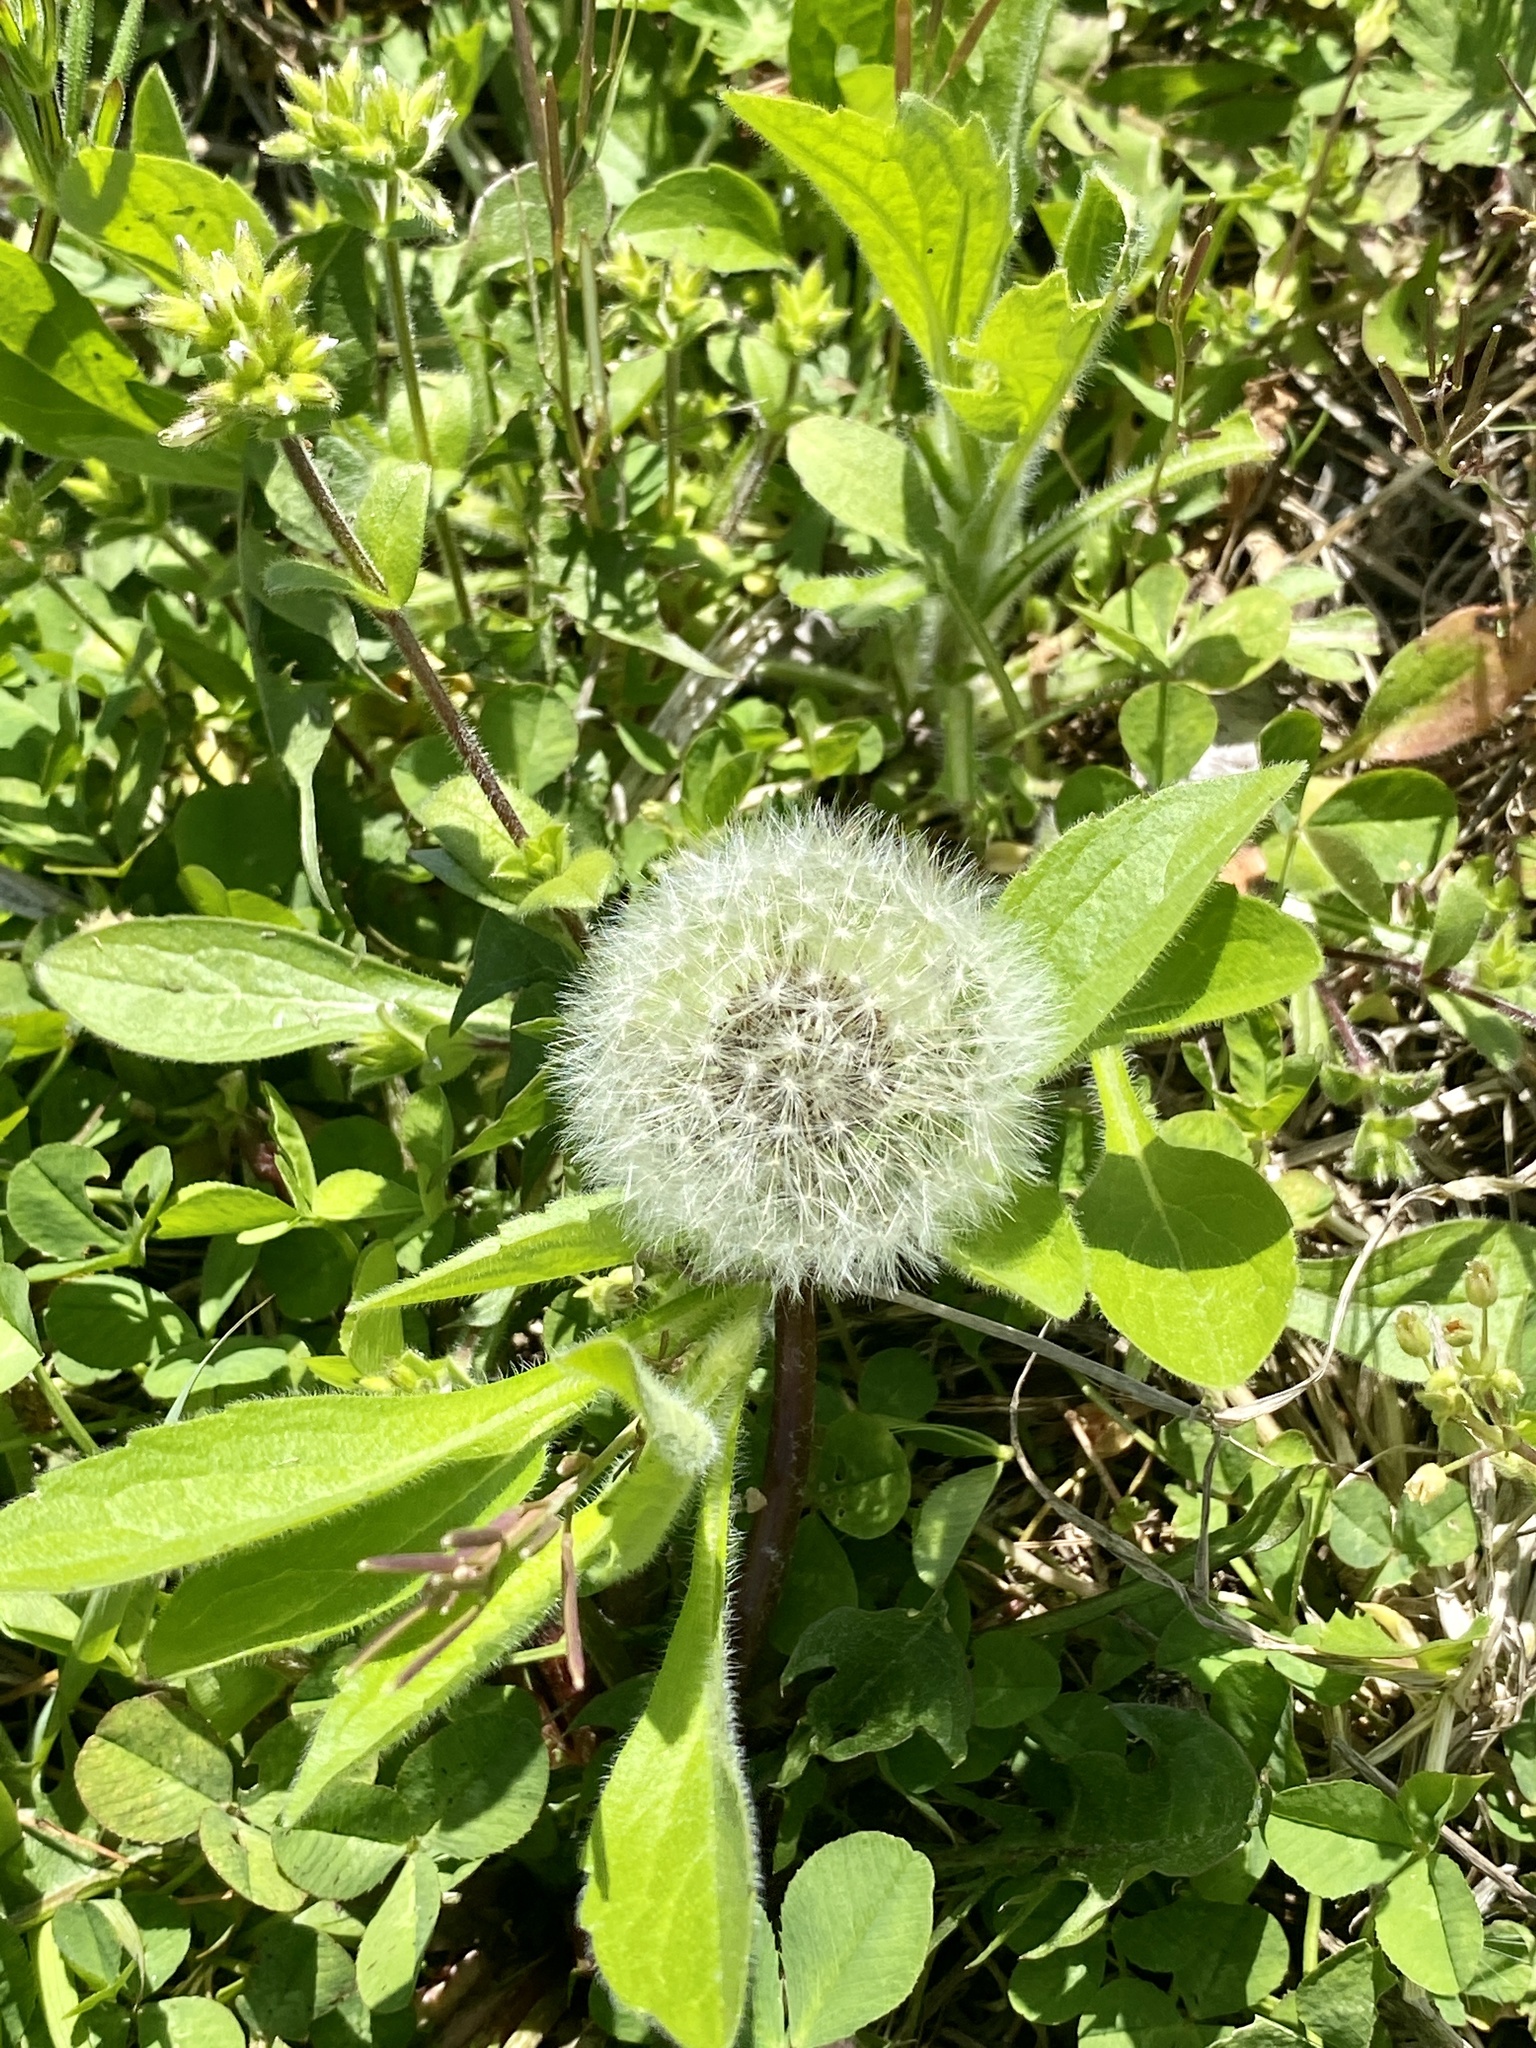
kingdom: Plantae
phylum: Tracheophyta
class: Magnoliopsida
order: Asterales
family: Asteraceae
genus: Taraxacum
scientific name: Taraxacum officinale
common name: Common dandelion
